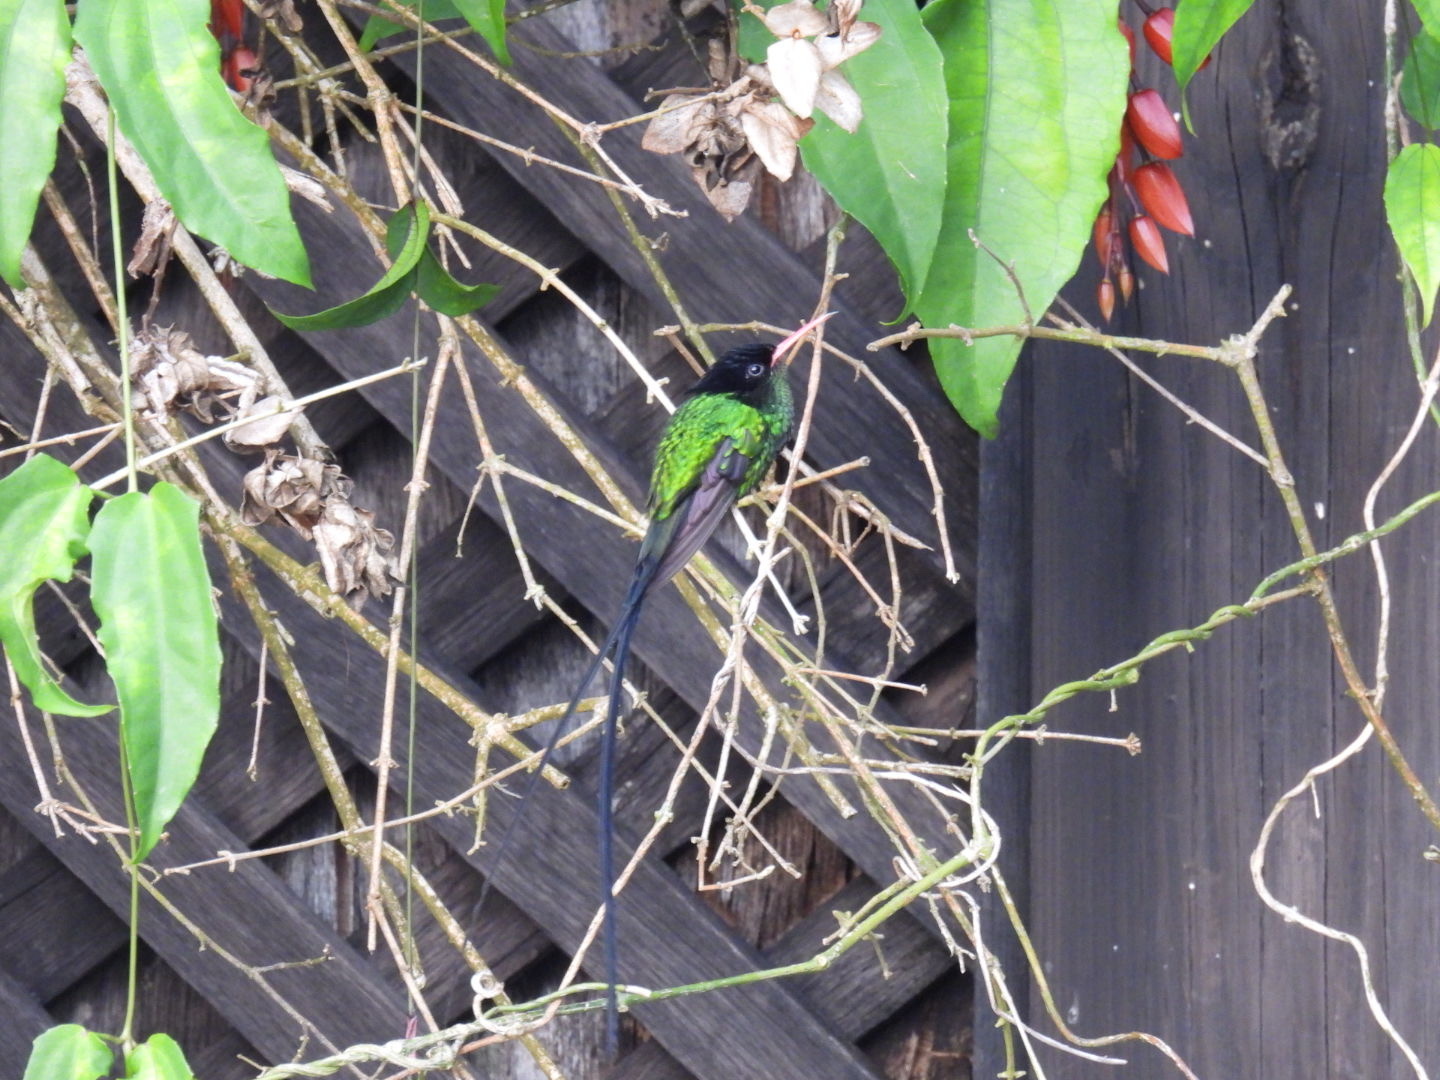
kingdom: Animalia
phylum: Chordata
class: Aves
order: Apodiformes
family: Trochilidae
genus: Trochilus
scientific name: Trochilus polytmus
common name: Red-billed streamertail
